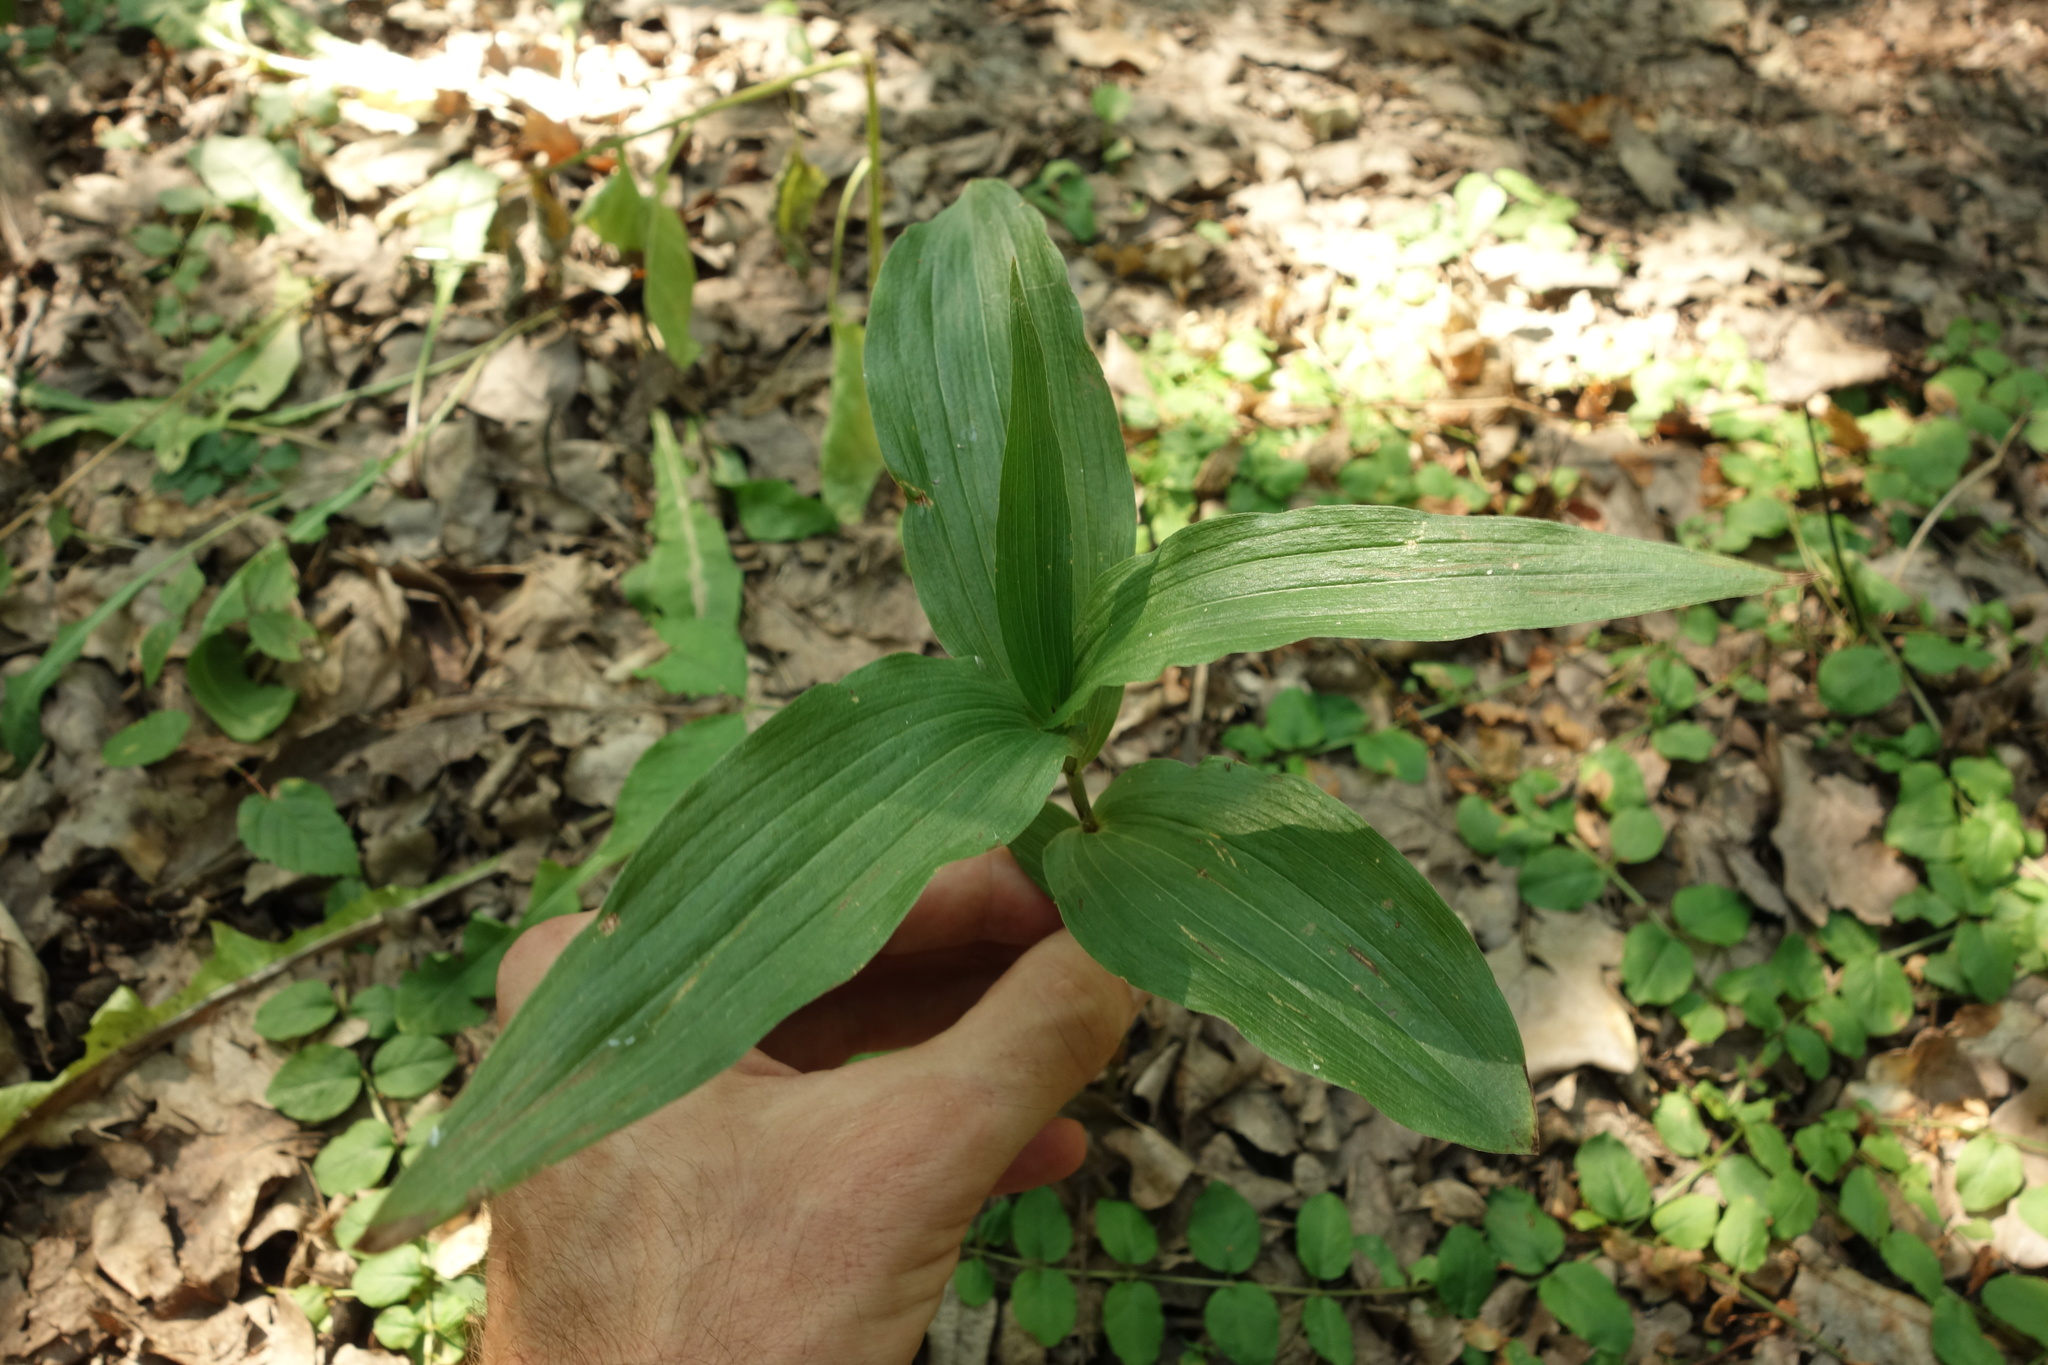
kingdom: Plantae
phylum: Tracheophyta
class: Liliopsida
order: Asparagales
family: Orchidaceae
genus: Epipactis
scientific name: Epipactis helleborine
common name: Broad-leaved helleborine
